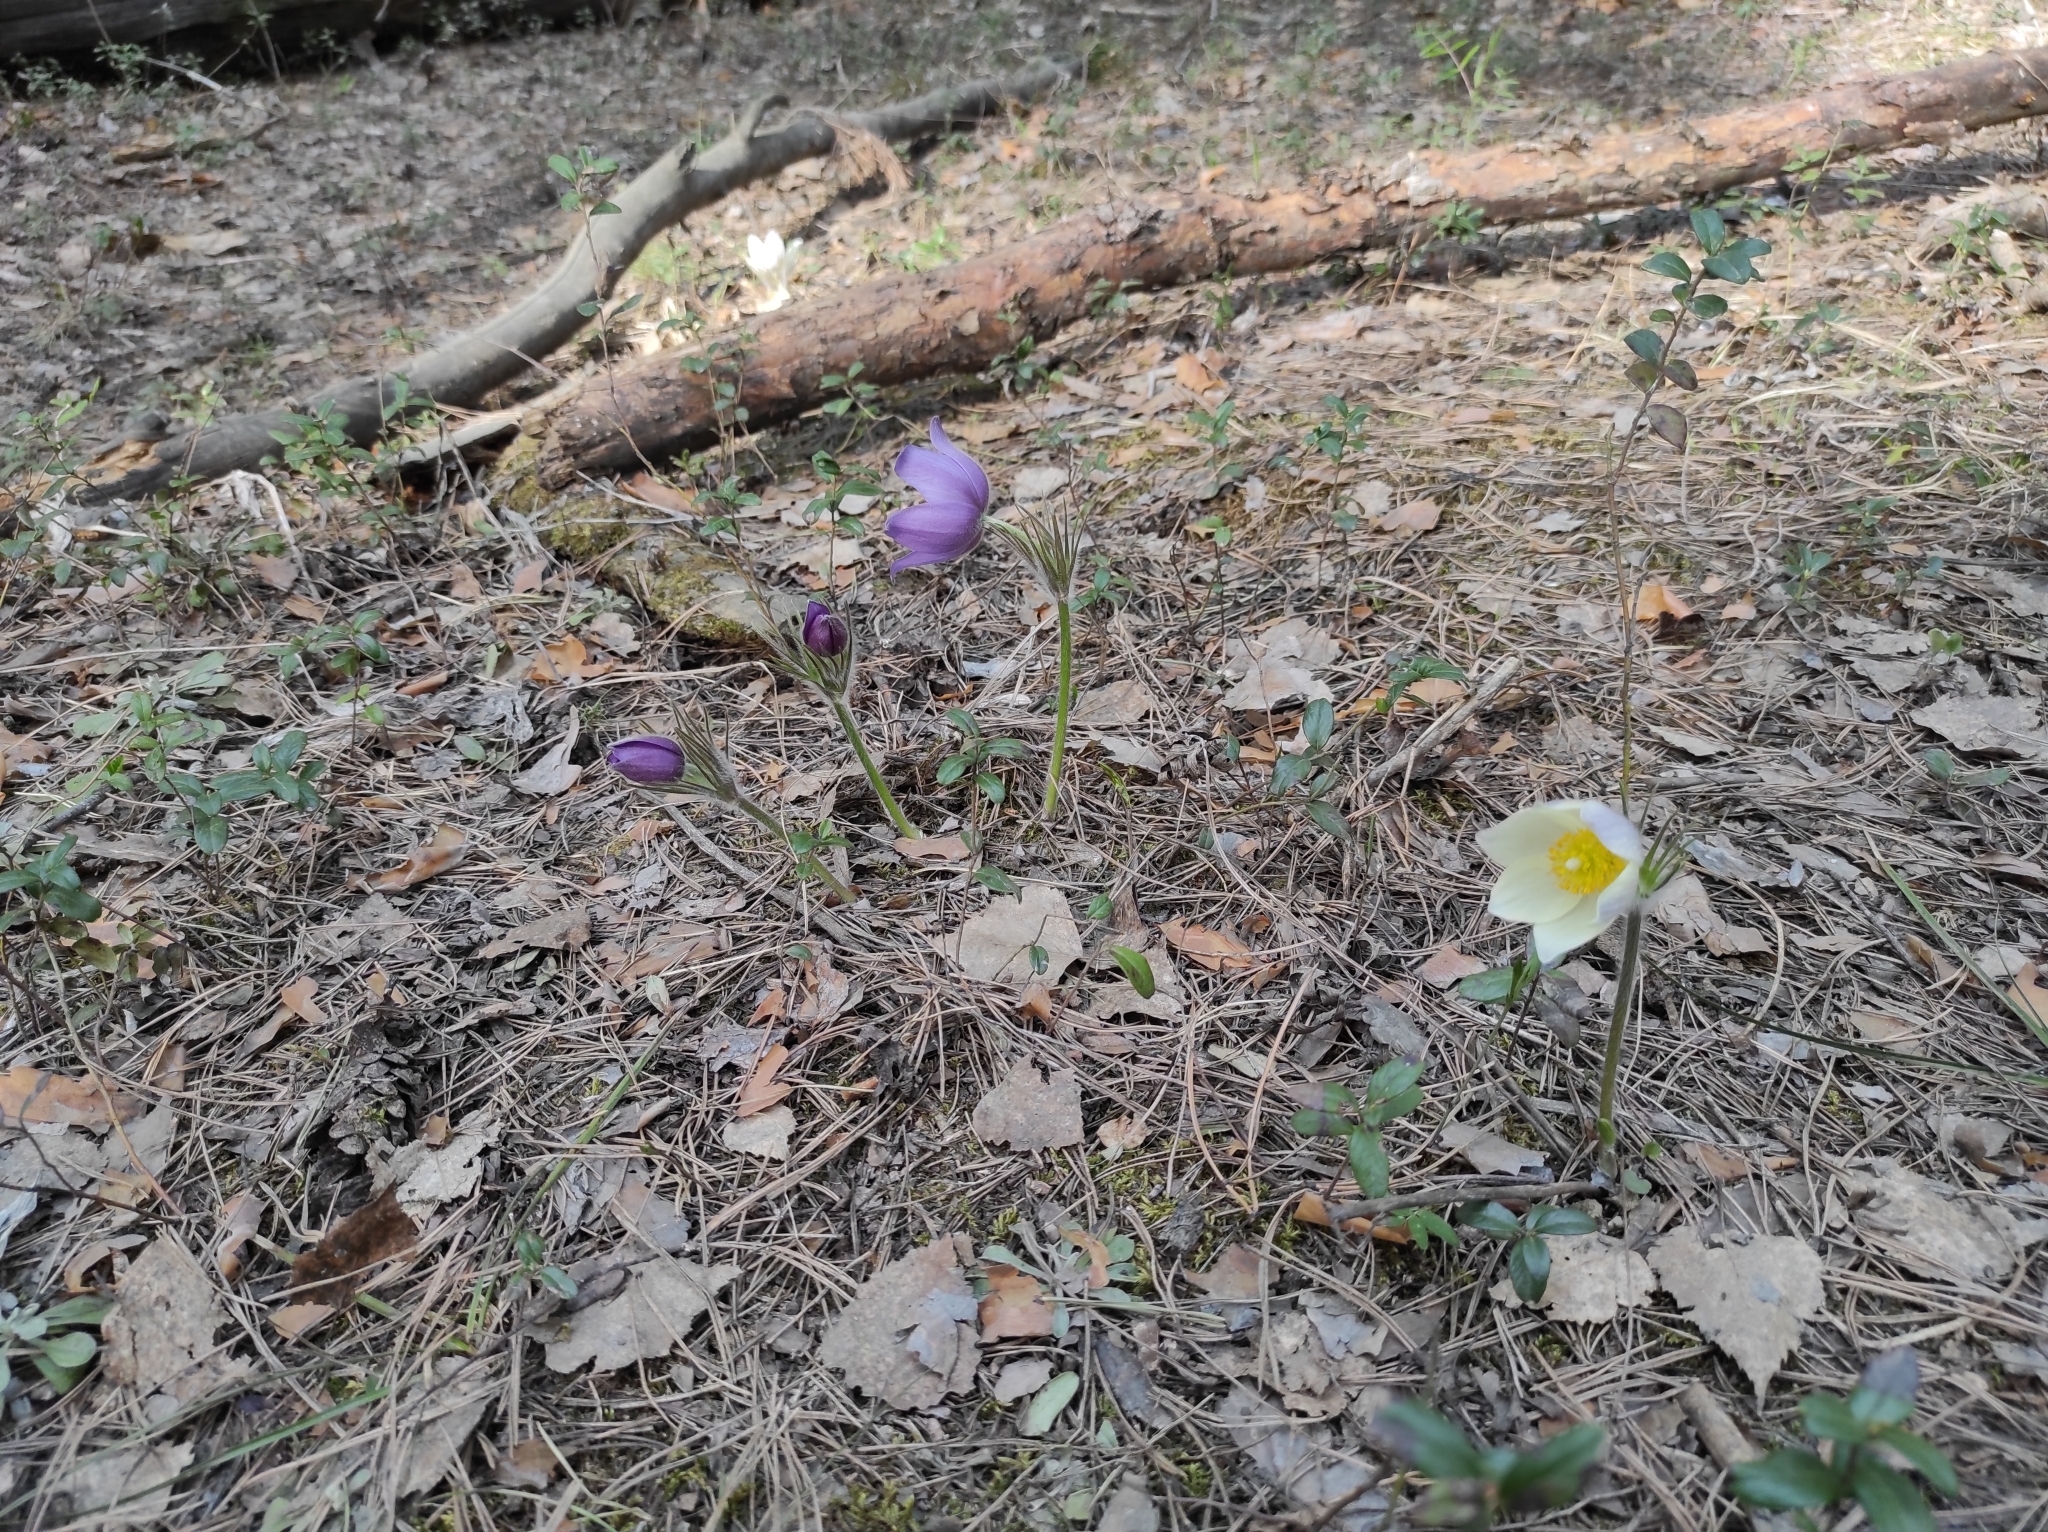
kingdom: Plantae
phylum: Tracheophyta
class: Magnoliopsida
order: Ranunculales
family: Ranunculaceae
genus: Pulsatilla
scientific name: Pulsatilla patens
